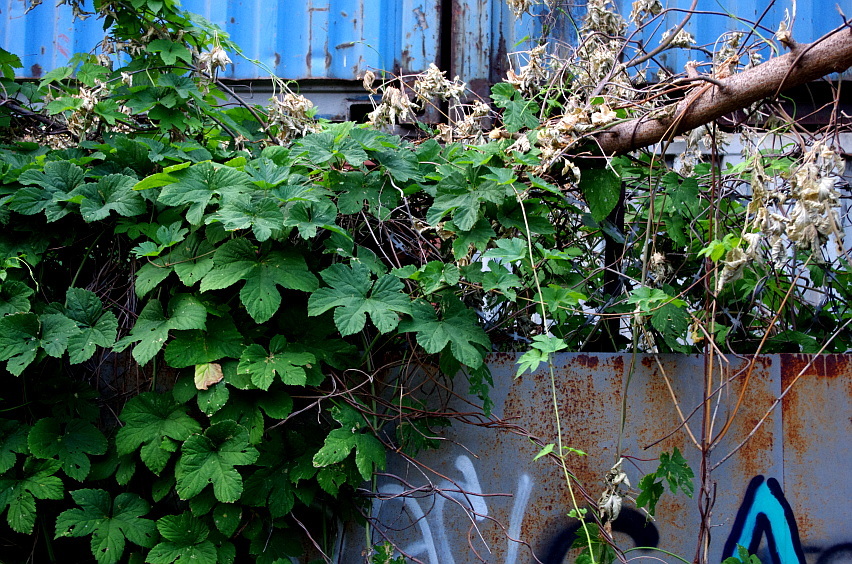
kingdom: Plantae
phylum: Tracheophyta
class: Magnoliopsida
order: Rosales
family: Cannabaceae
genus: Humulus
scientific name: Humulus lupulus
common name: Hop
